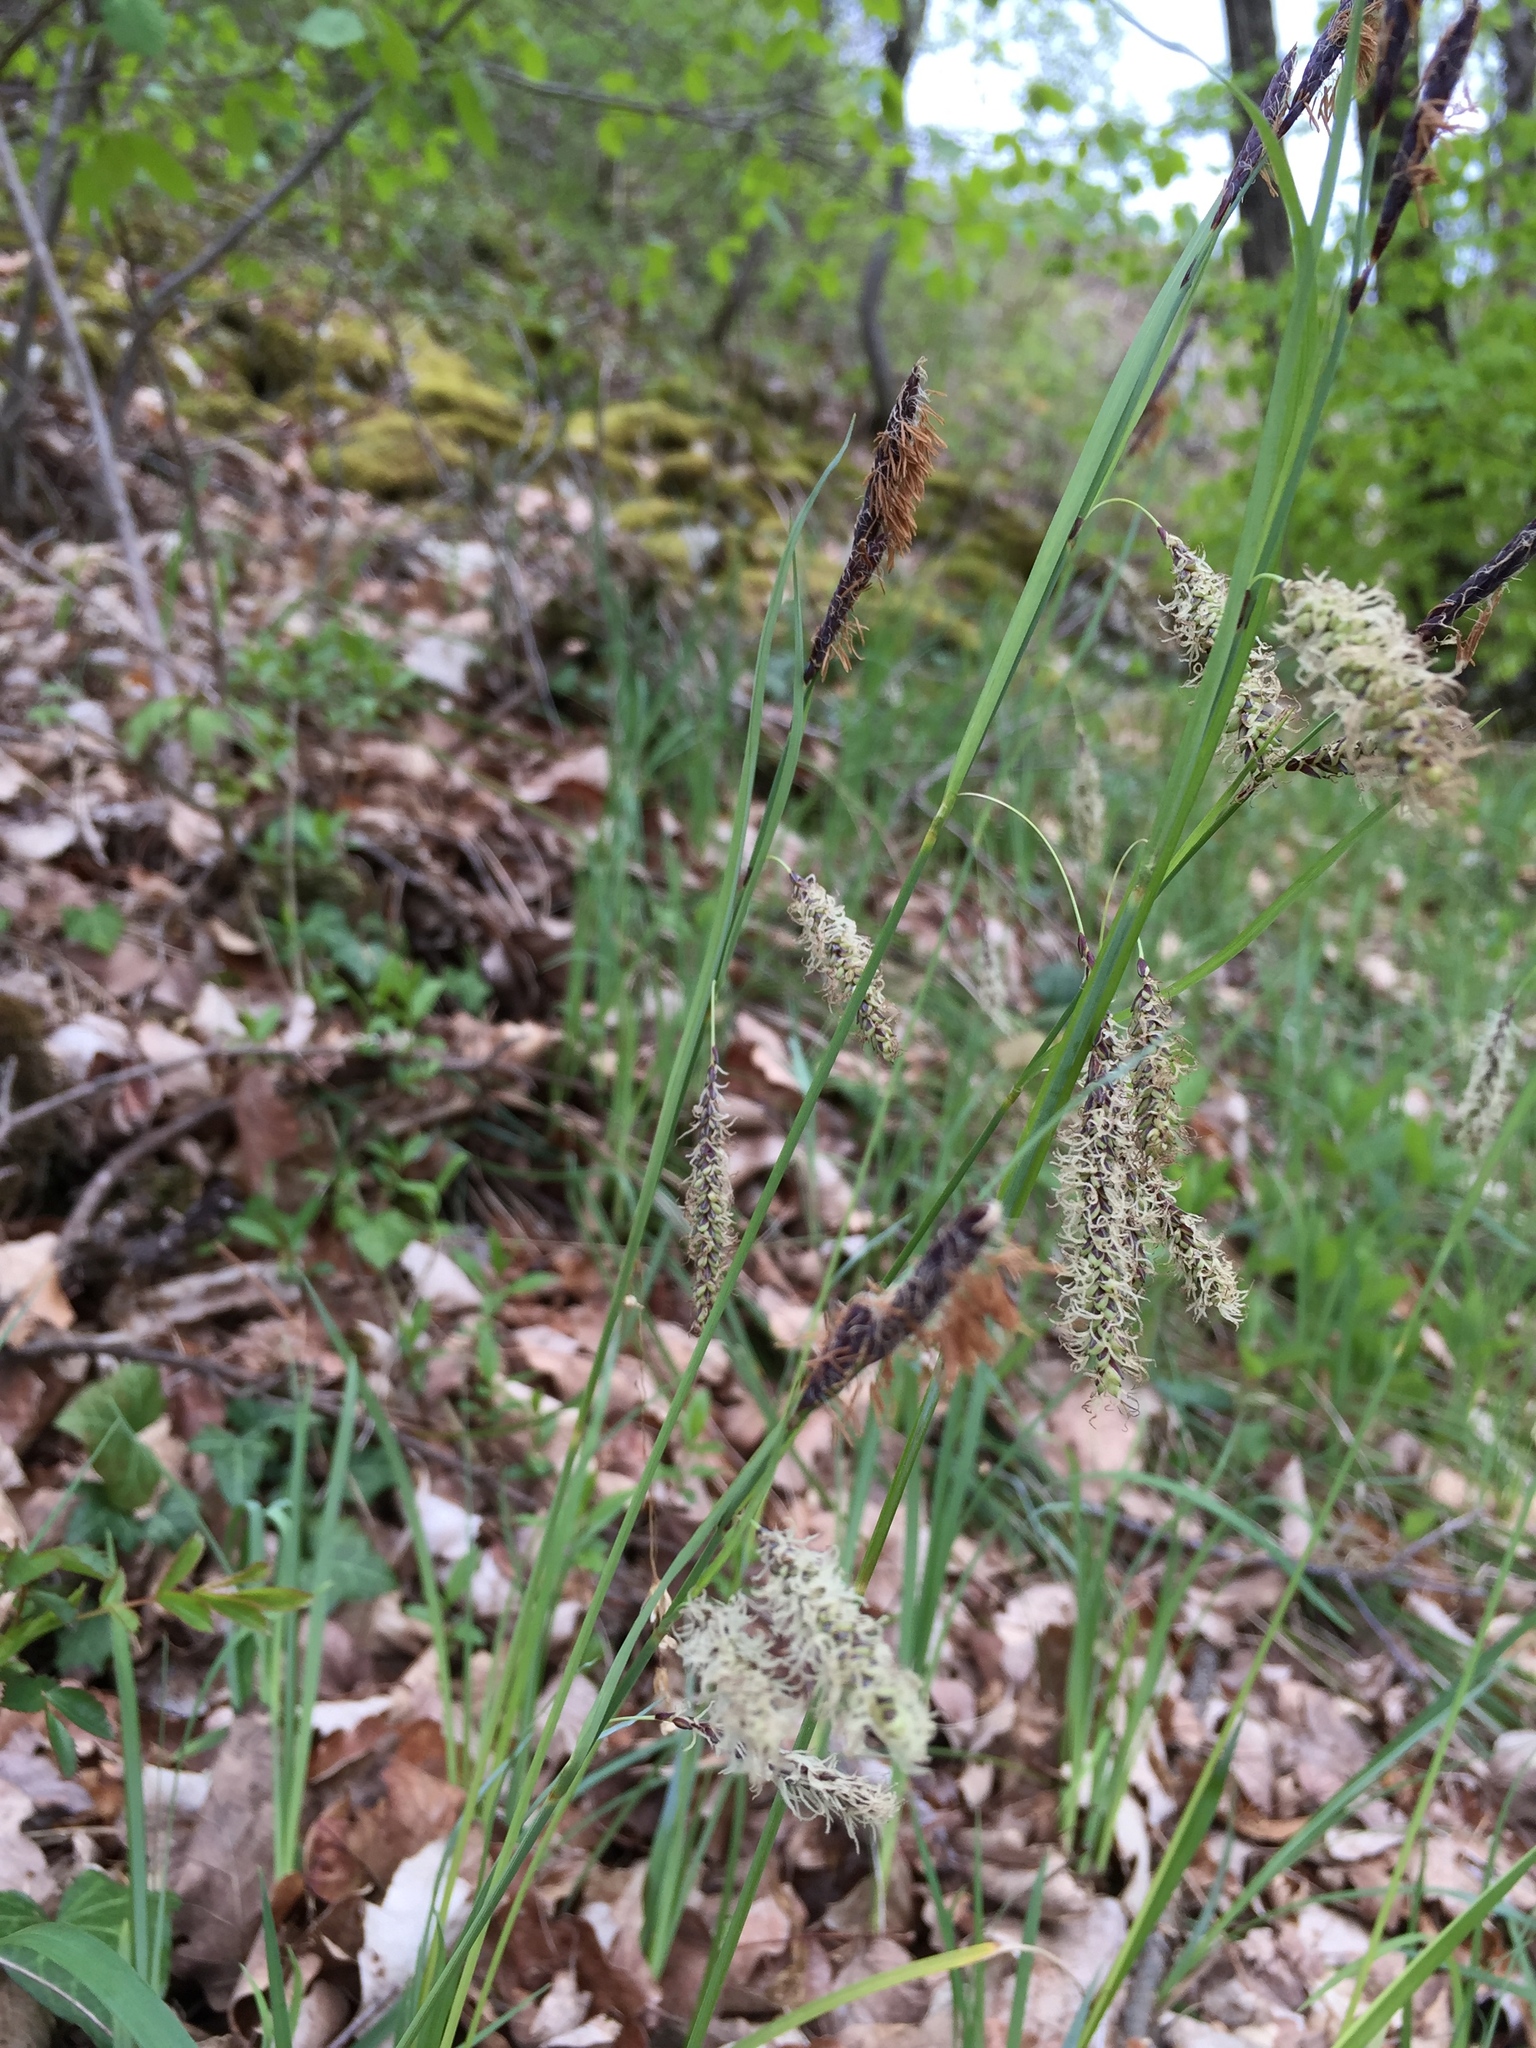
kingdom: Plantae
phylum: Tracheophyta
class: Liliopsida
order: Poales
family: Cyperaceae
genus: Carex
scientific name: Carex flacca
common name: Glaucous sedge
